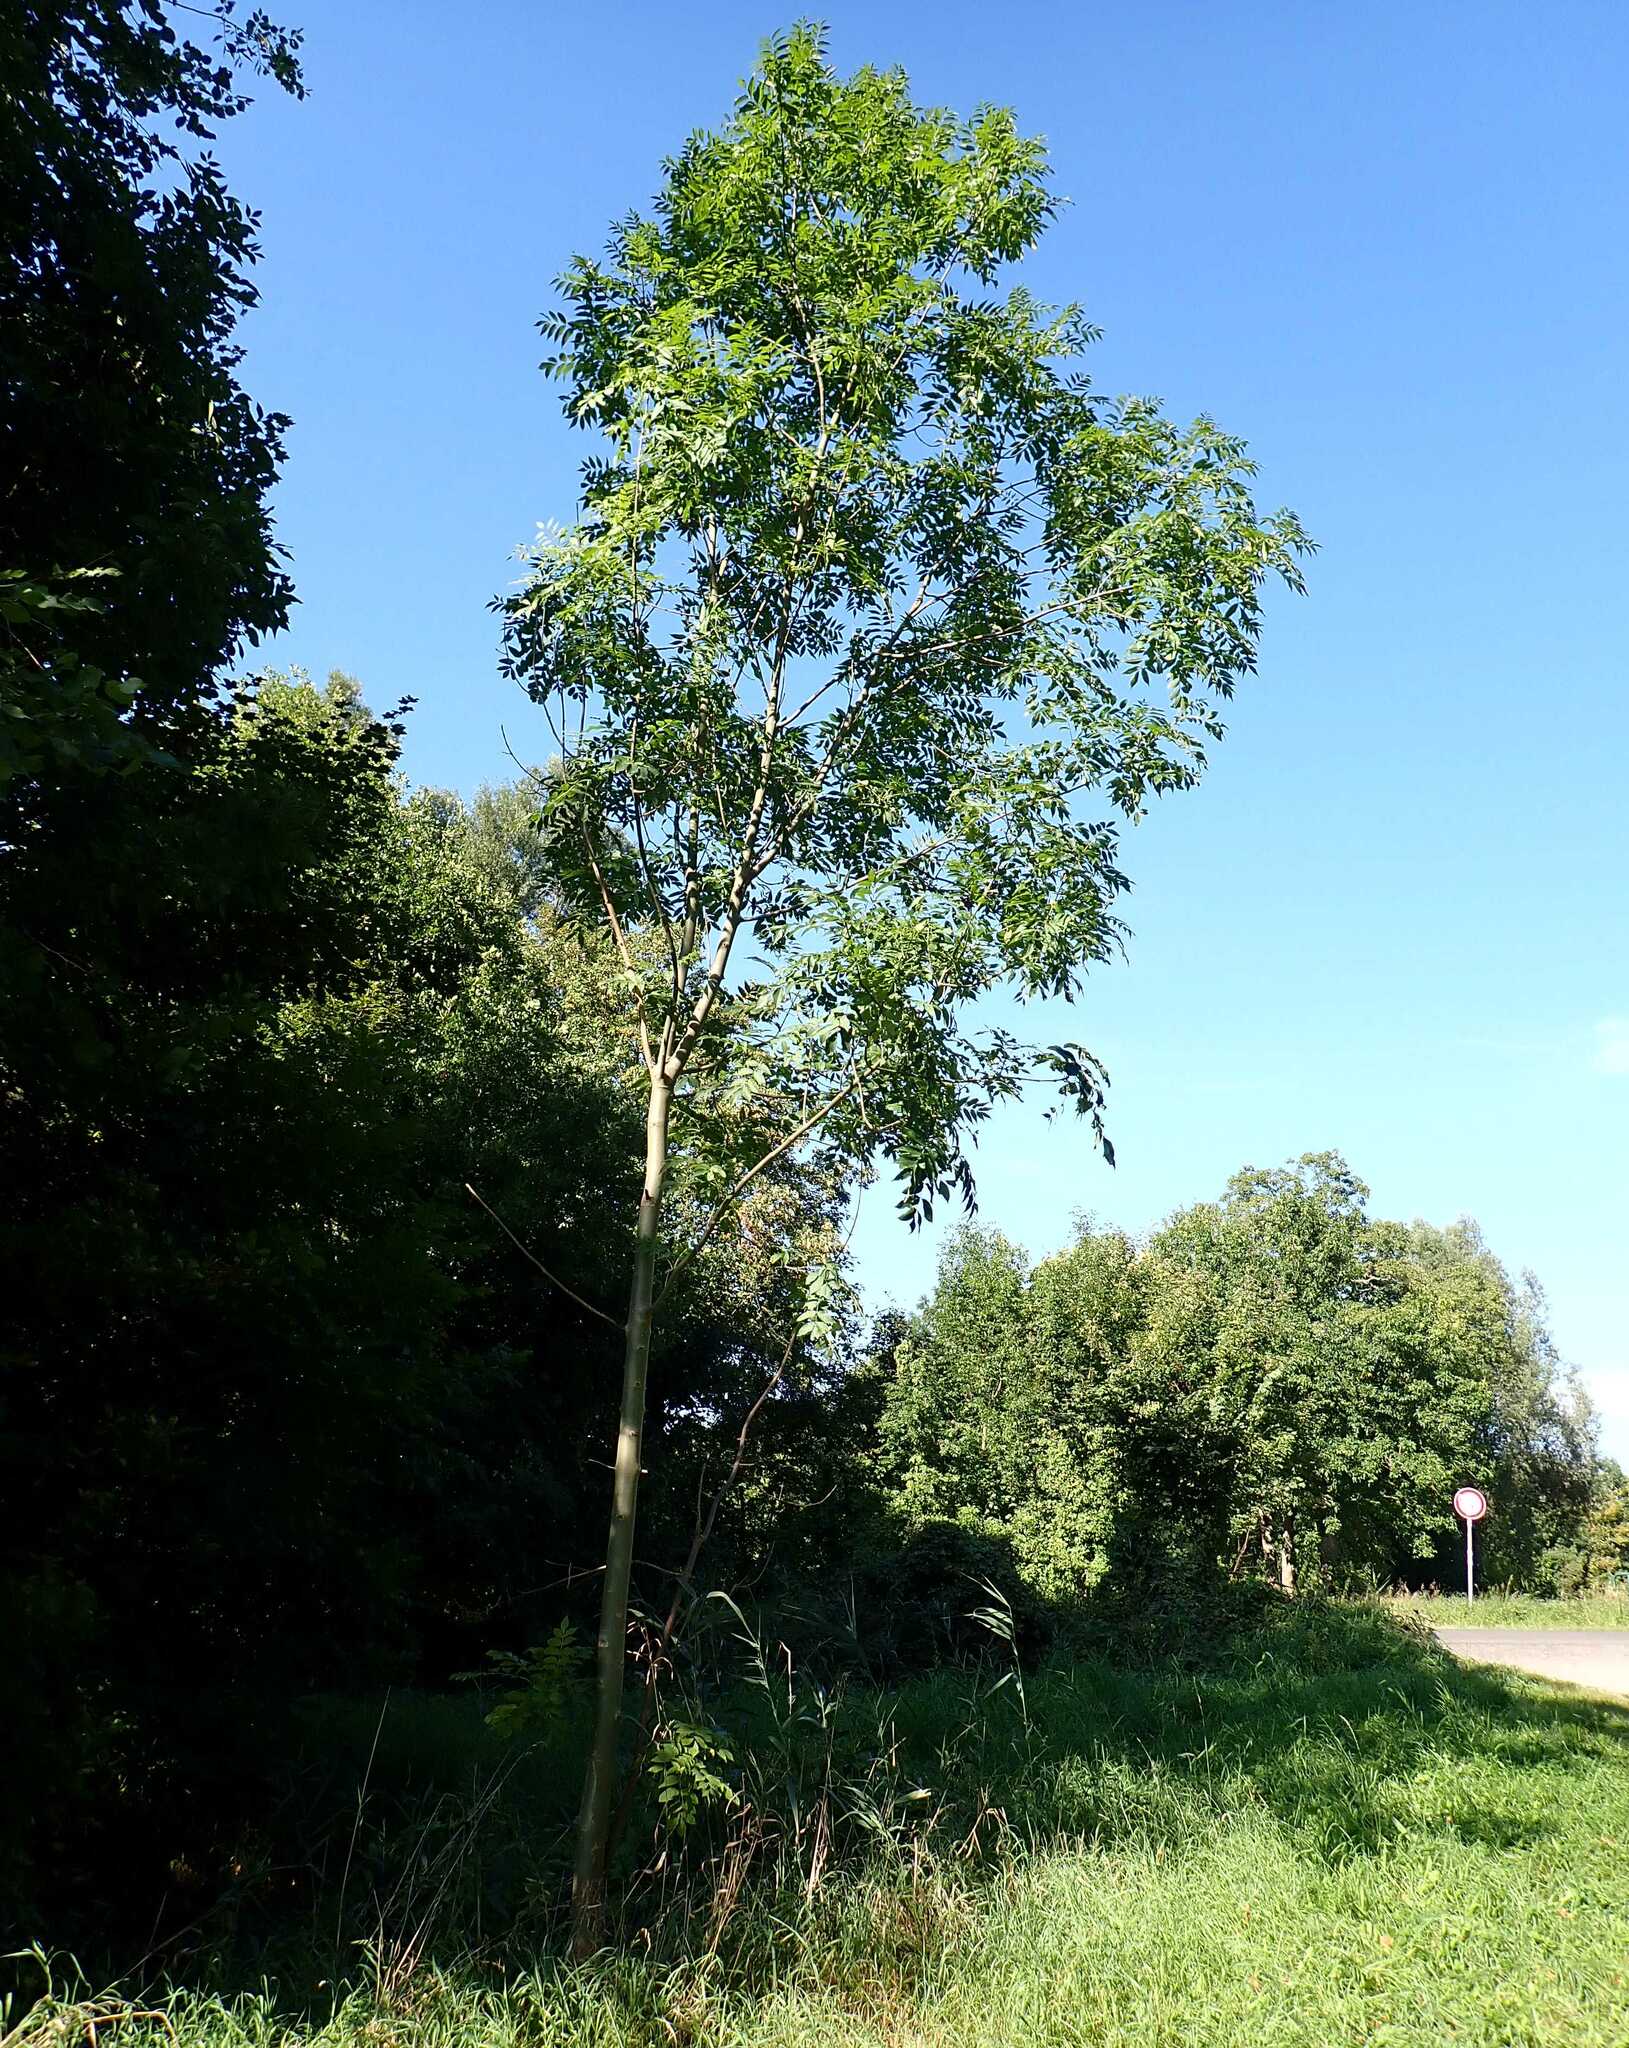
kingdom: Plantae
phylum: Tracheophyta
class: Magnoliopsida
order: Lamiales
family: Oleaceae
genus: Fraxinus
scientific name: Fraxinus excelsior
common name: European ash
